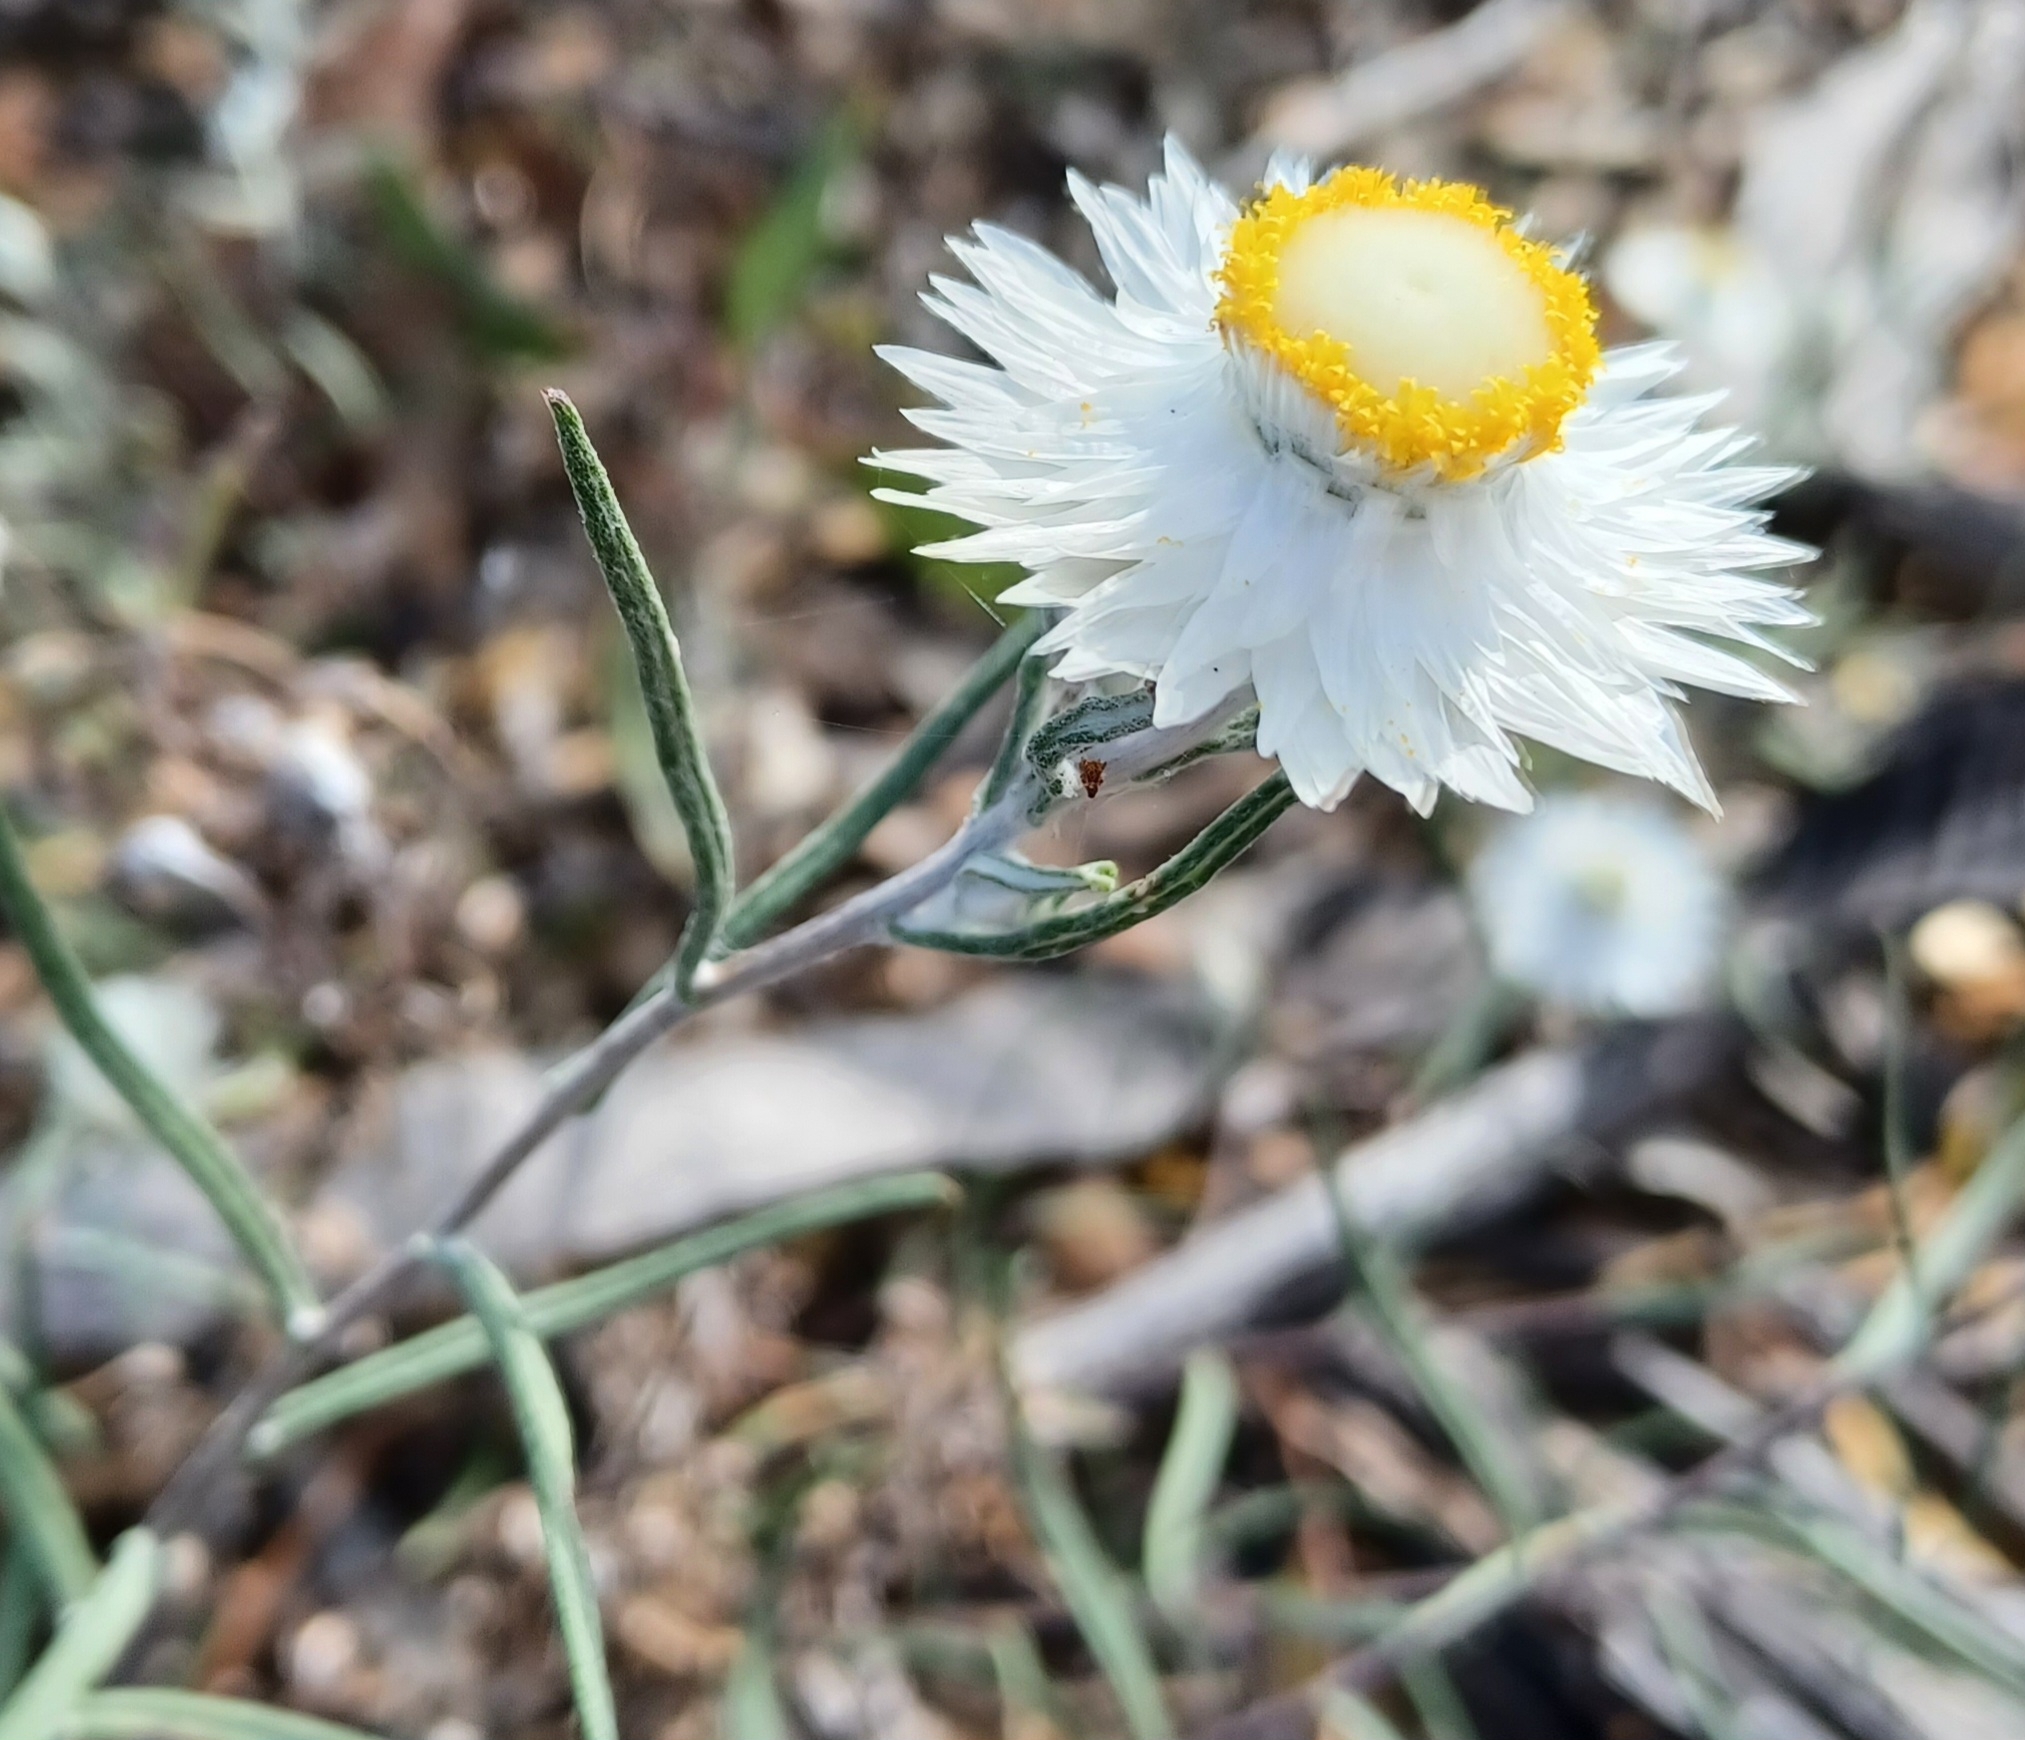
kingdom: Plantae
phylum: Tracheophyta
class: Magnoliopsida
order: Asterales
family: Asteraceae
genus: Helichrysum
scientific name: Helichrysum leucopsideum
